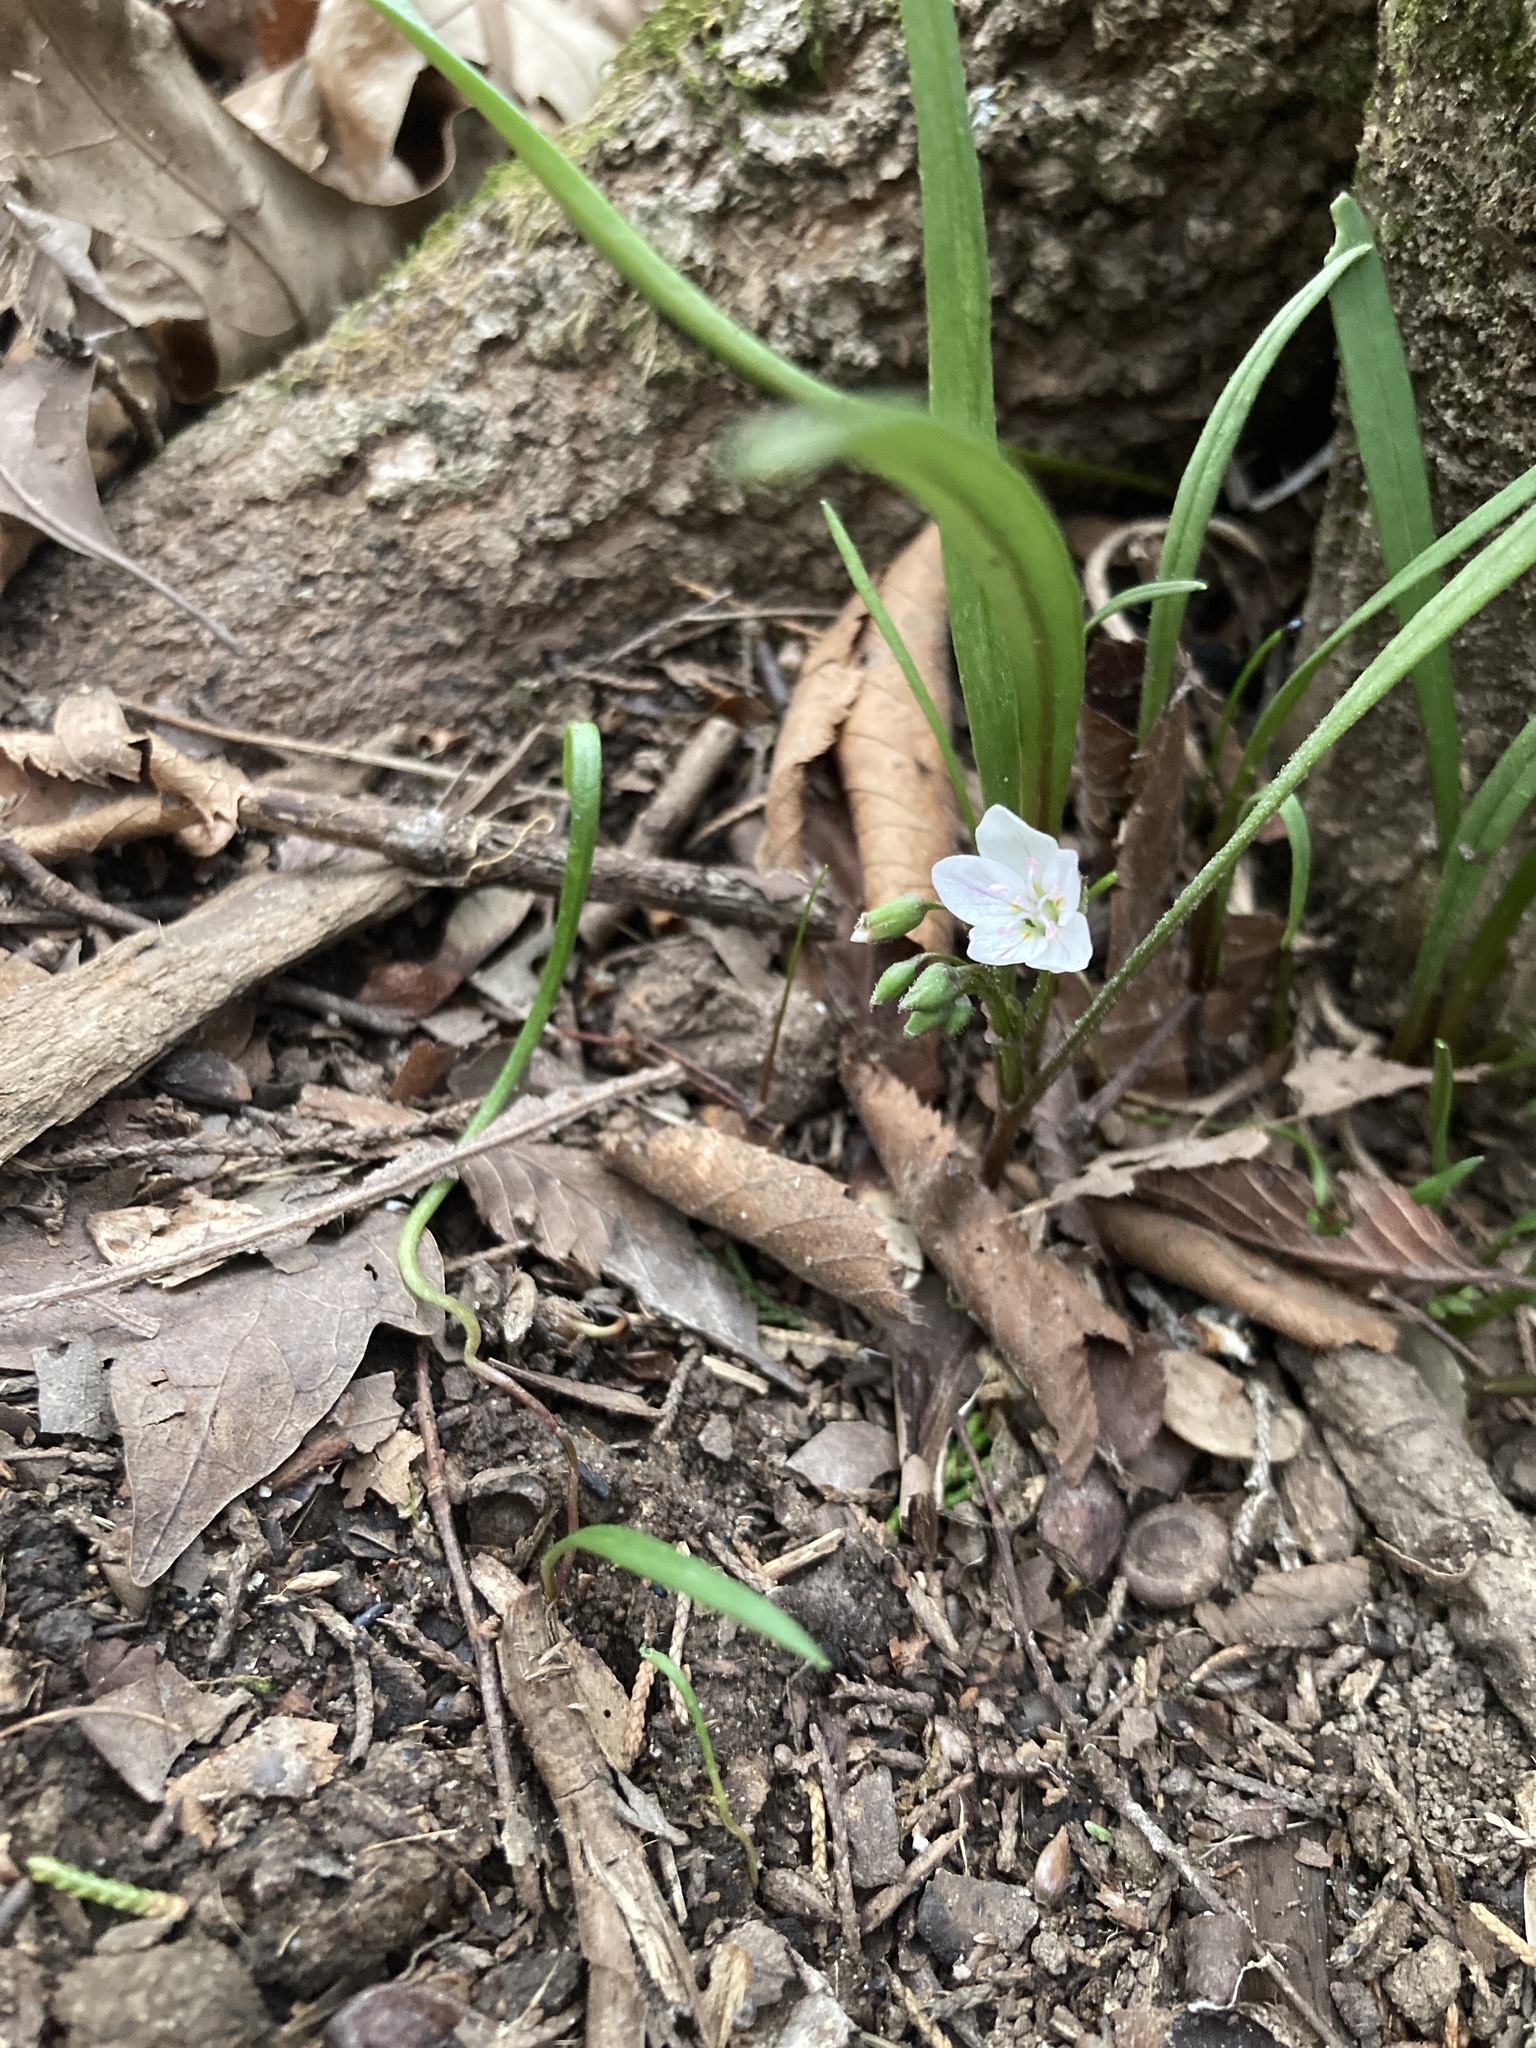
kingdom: Plantae
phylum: Tracheophyta
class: Magnoliopsida
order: Caryophyllales
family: Montiaceae
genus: Claytonia
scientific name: Claytonia virginica
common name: Virginia springbeauty
